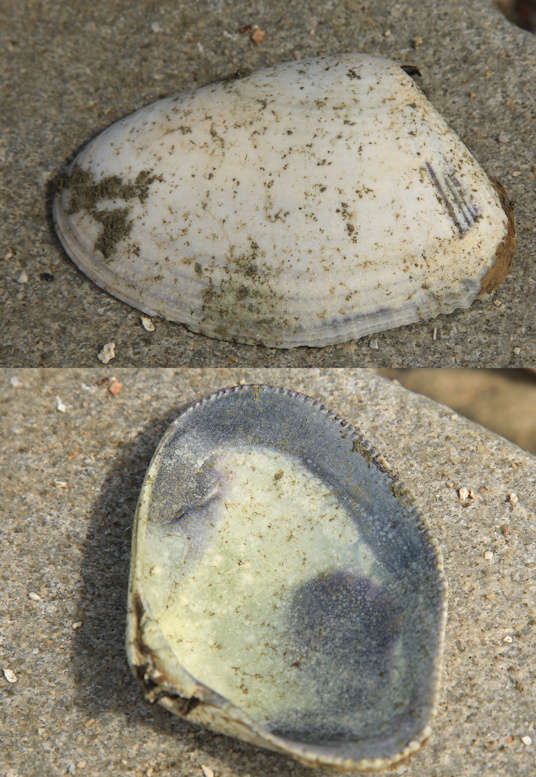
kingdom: Animalia
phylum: Mollusca
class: Bivalvia
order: Cardiida
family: Donacidae
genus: Donax
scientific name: Donax serra
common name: Giant south african wedge clam
